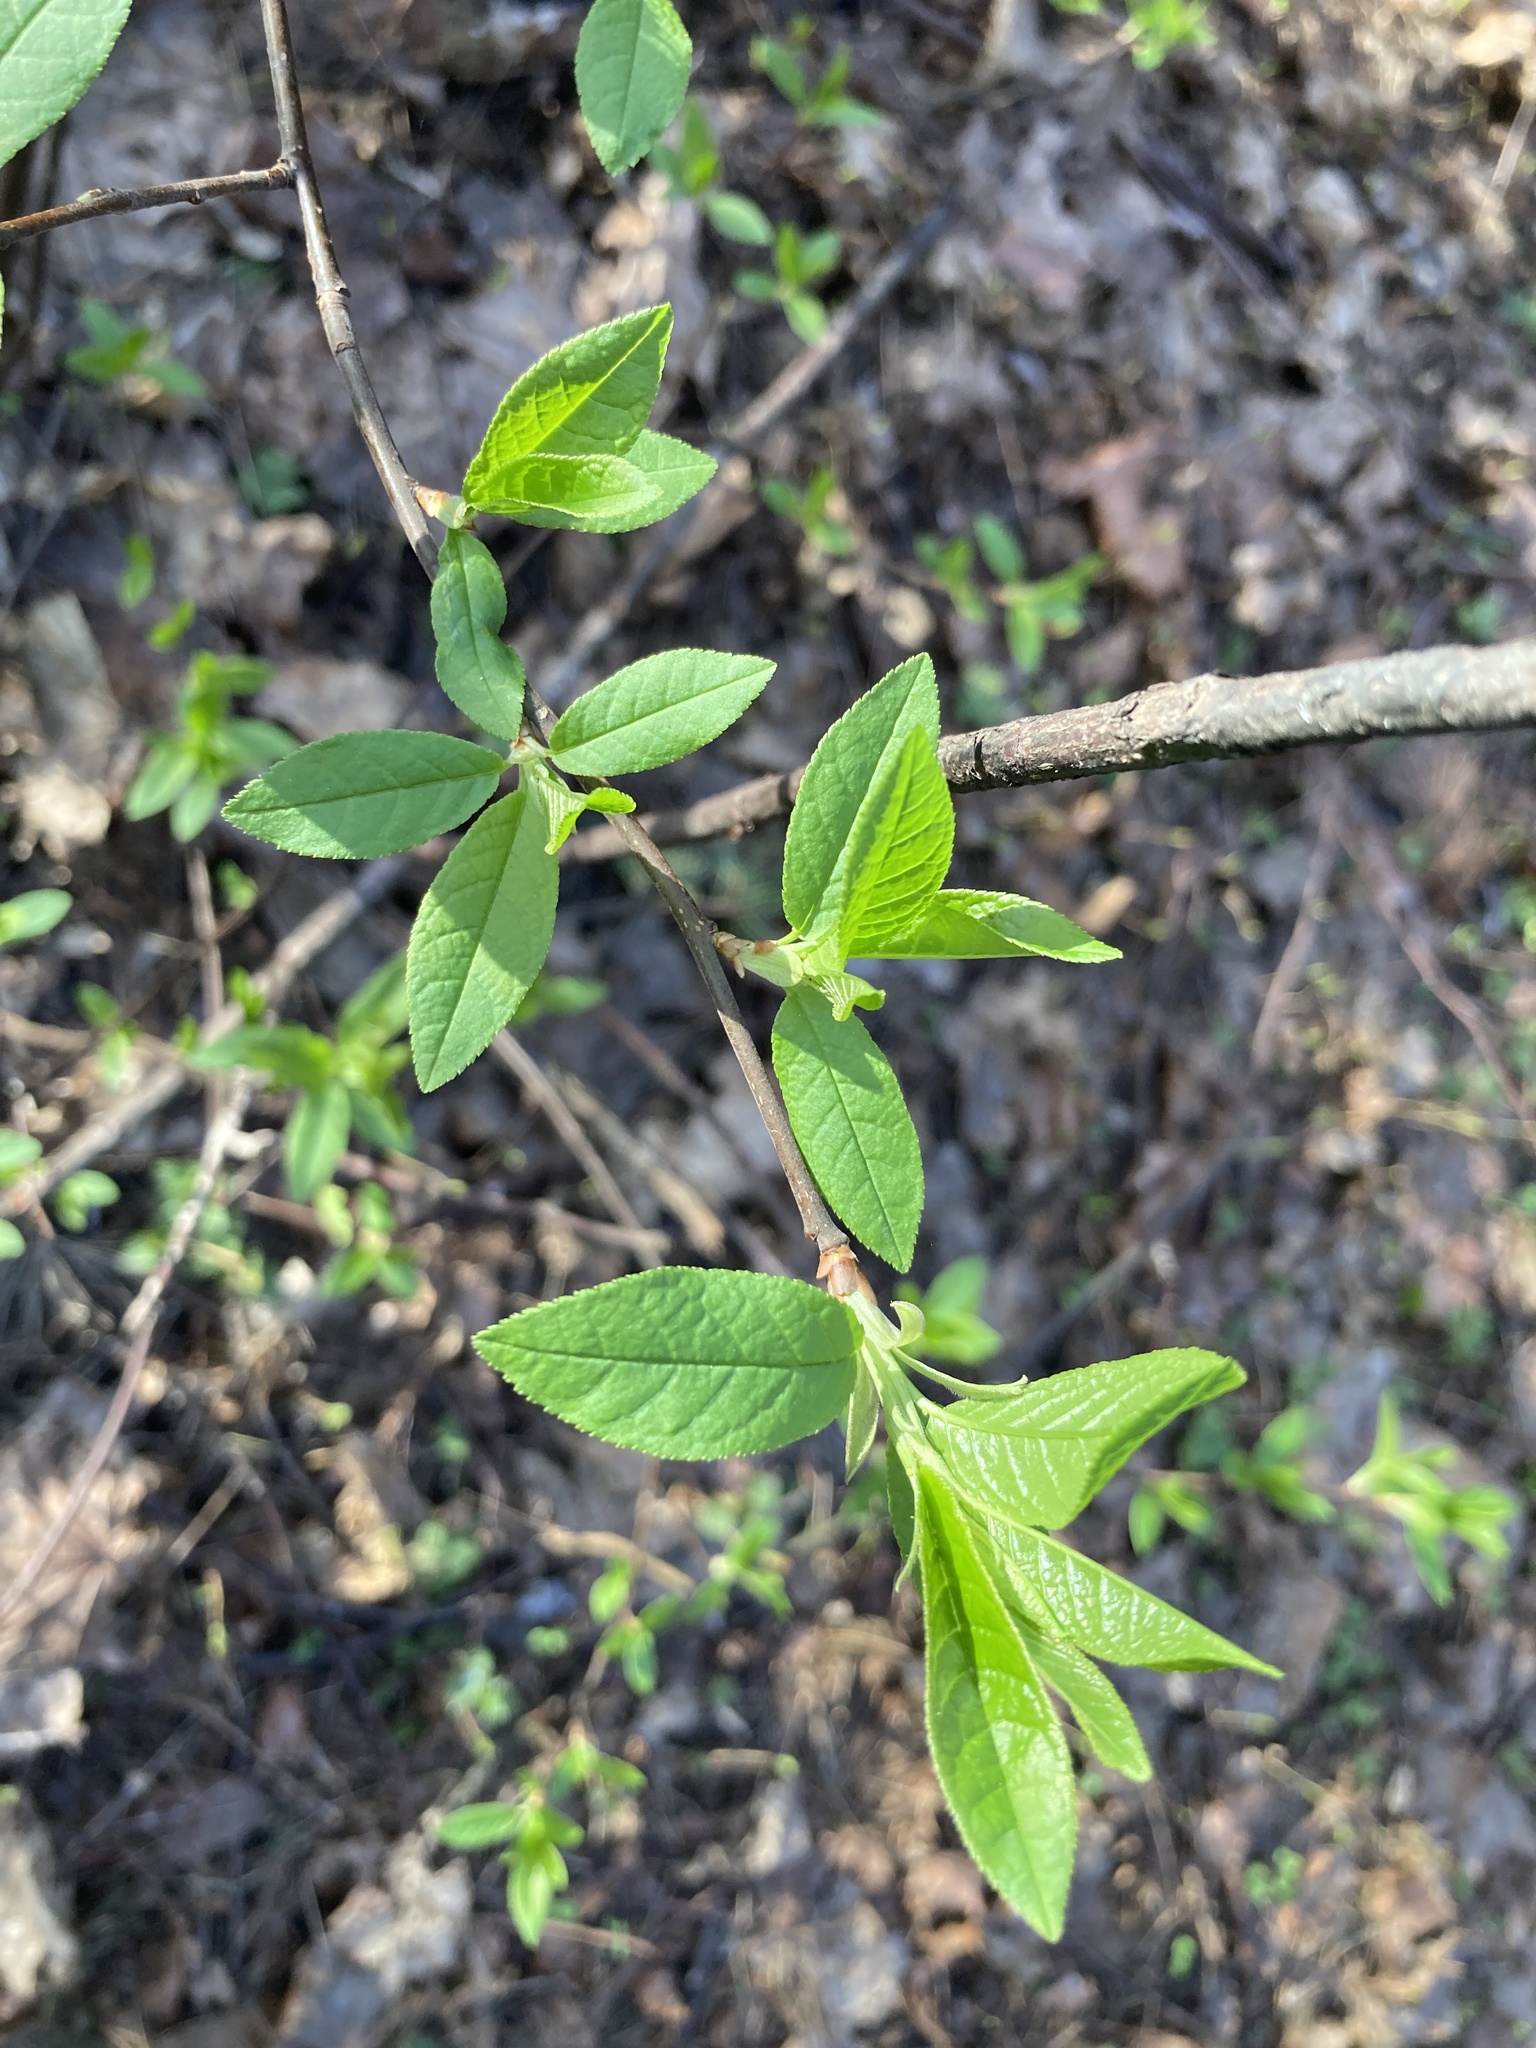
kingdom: Plantae
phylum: Tracheophyta
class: Magnoliopsida
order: Rosales
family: Rosaceae
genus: Prunus
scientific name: Prunus padus
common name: Bird cherry
